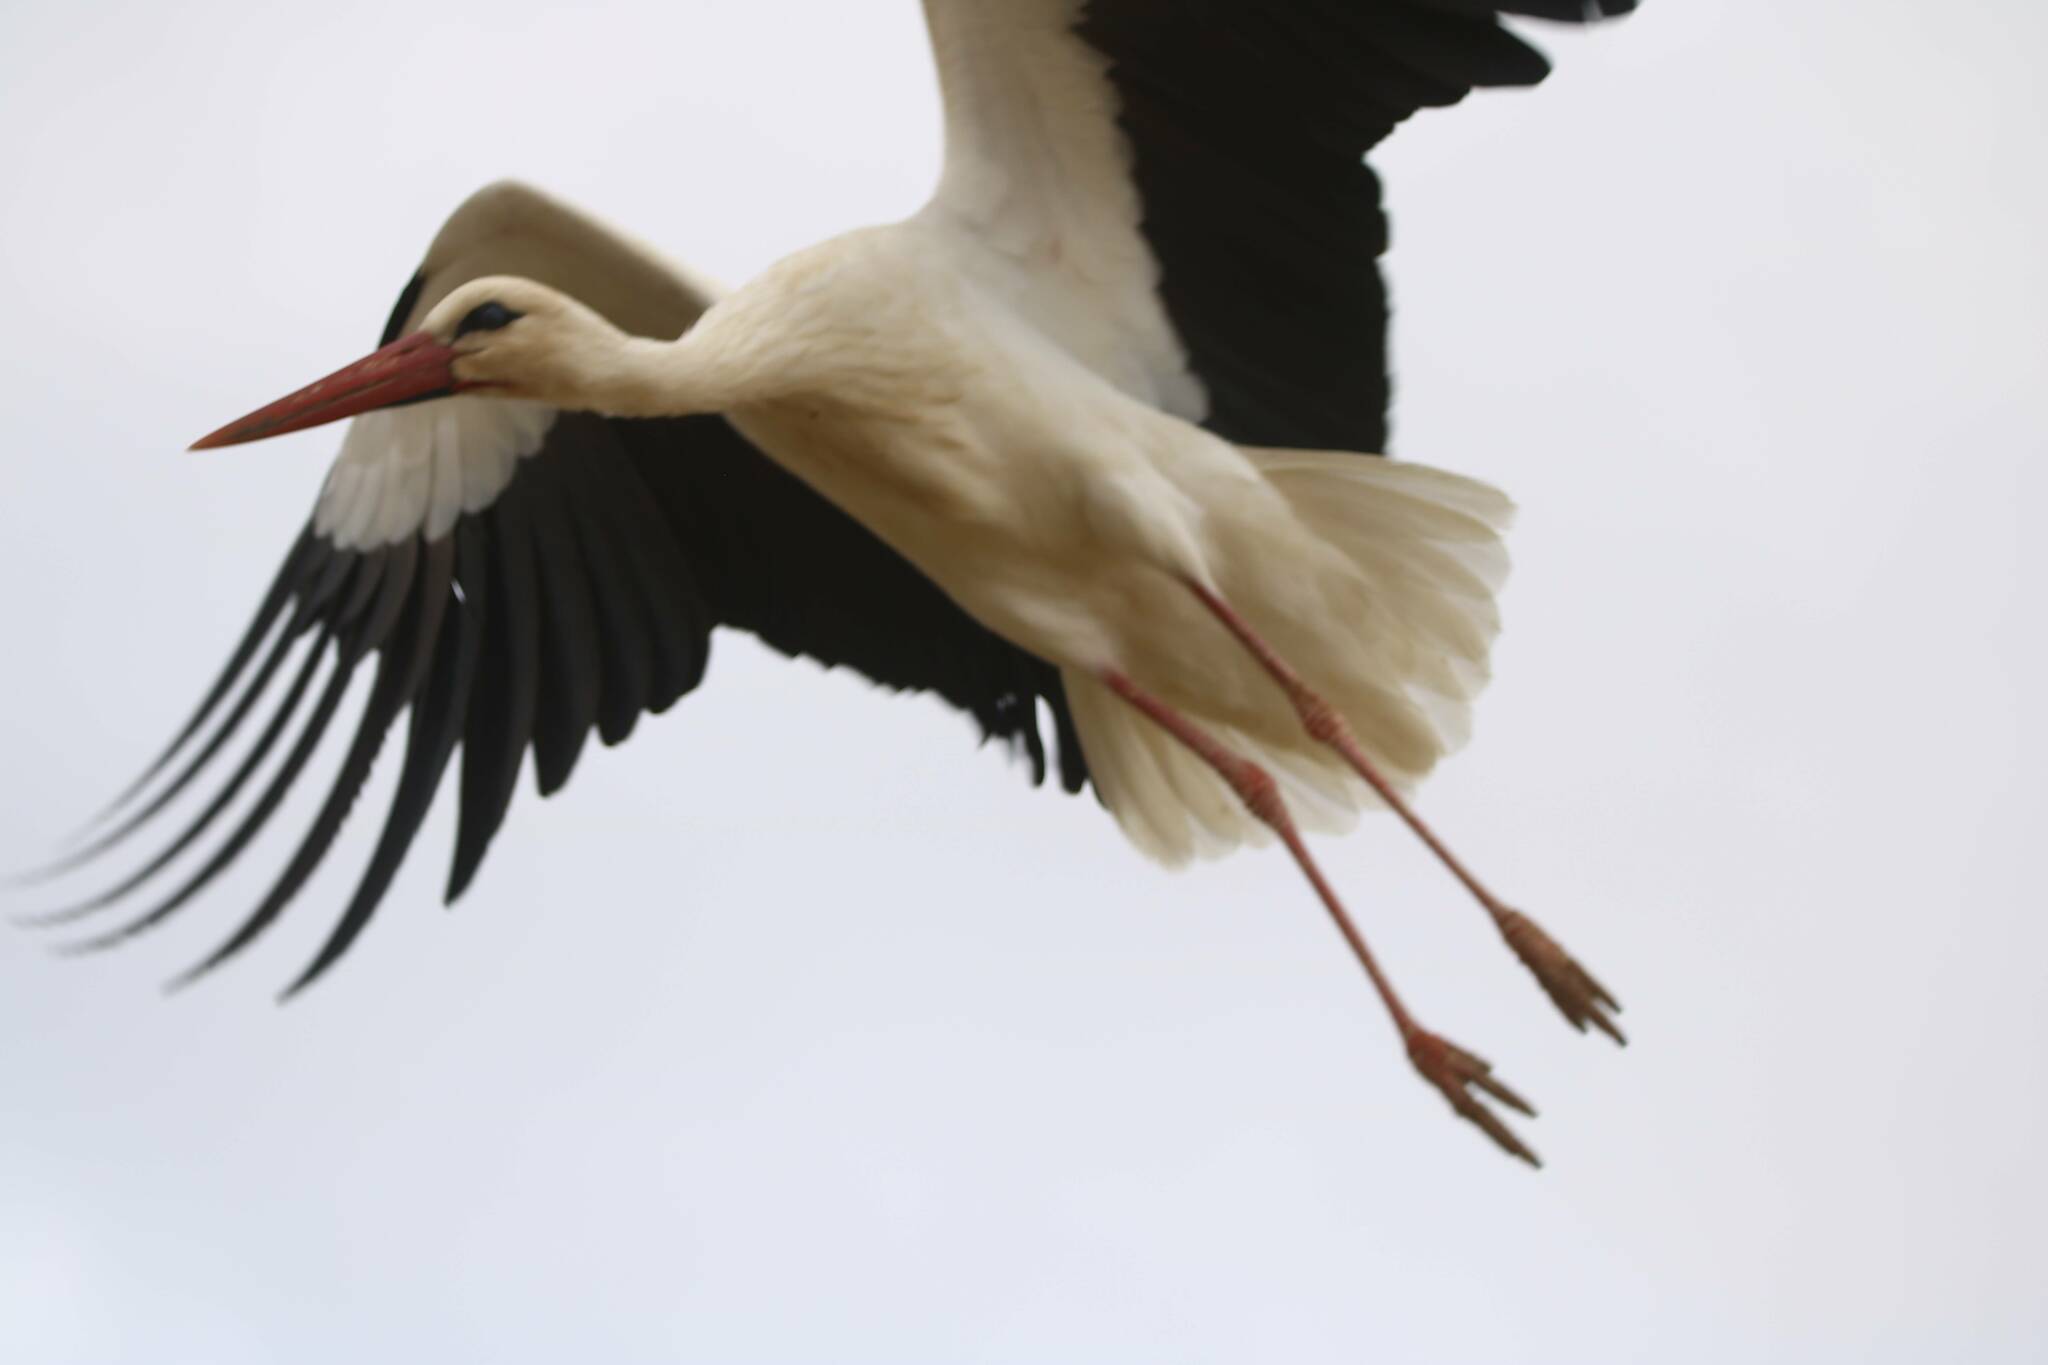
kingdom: Animalia
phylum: Chordata
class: Aves
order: Ciconiiformes
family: Ciconiidae
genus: Ciconia
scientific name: Ciconia ciconia
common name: White stork
